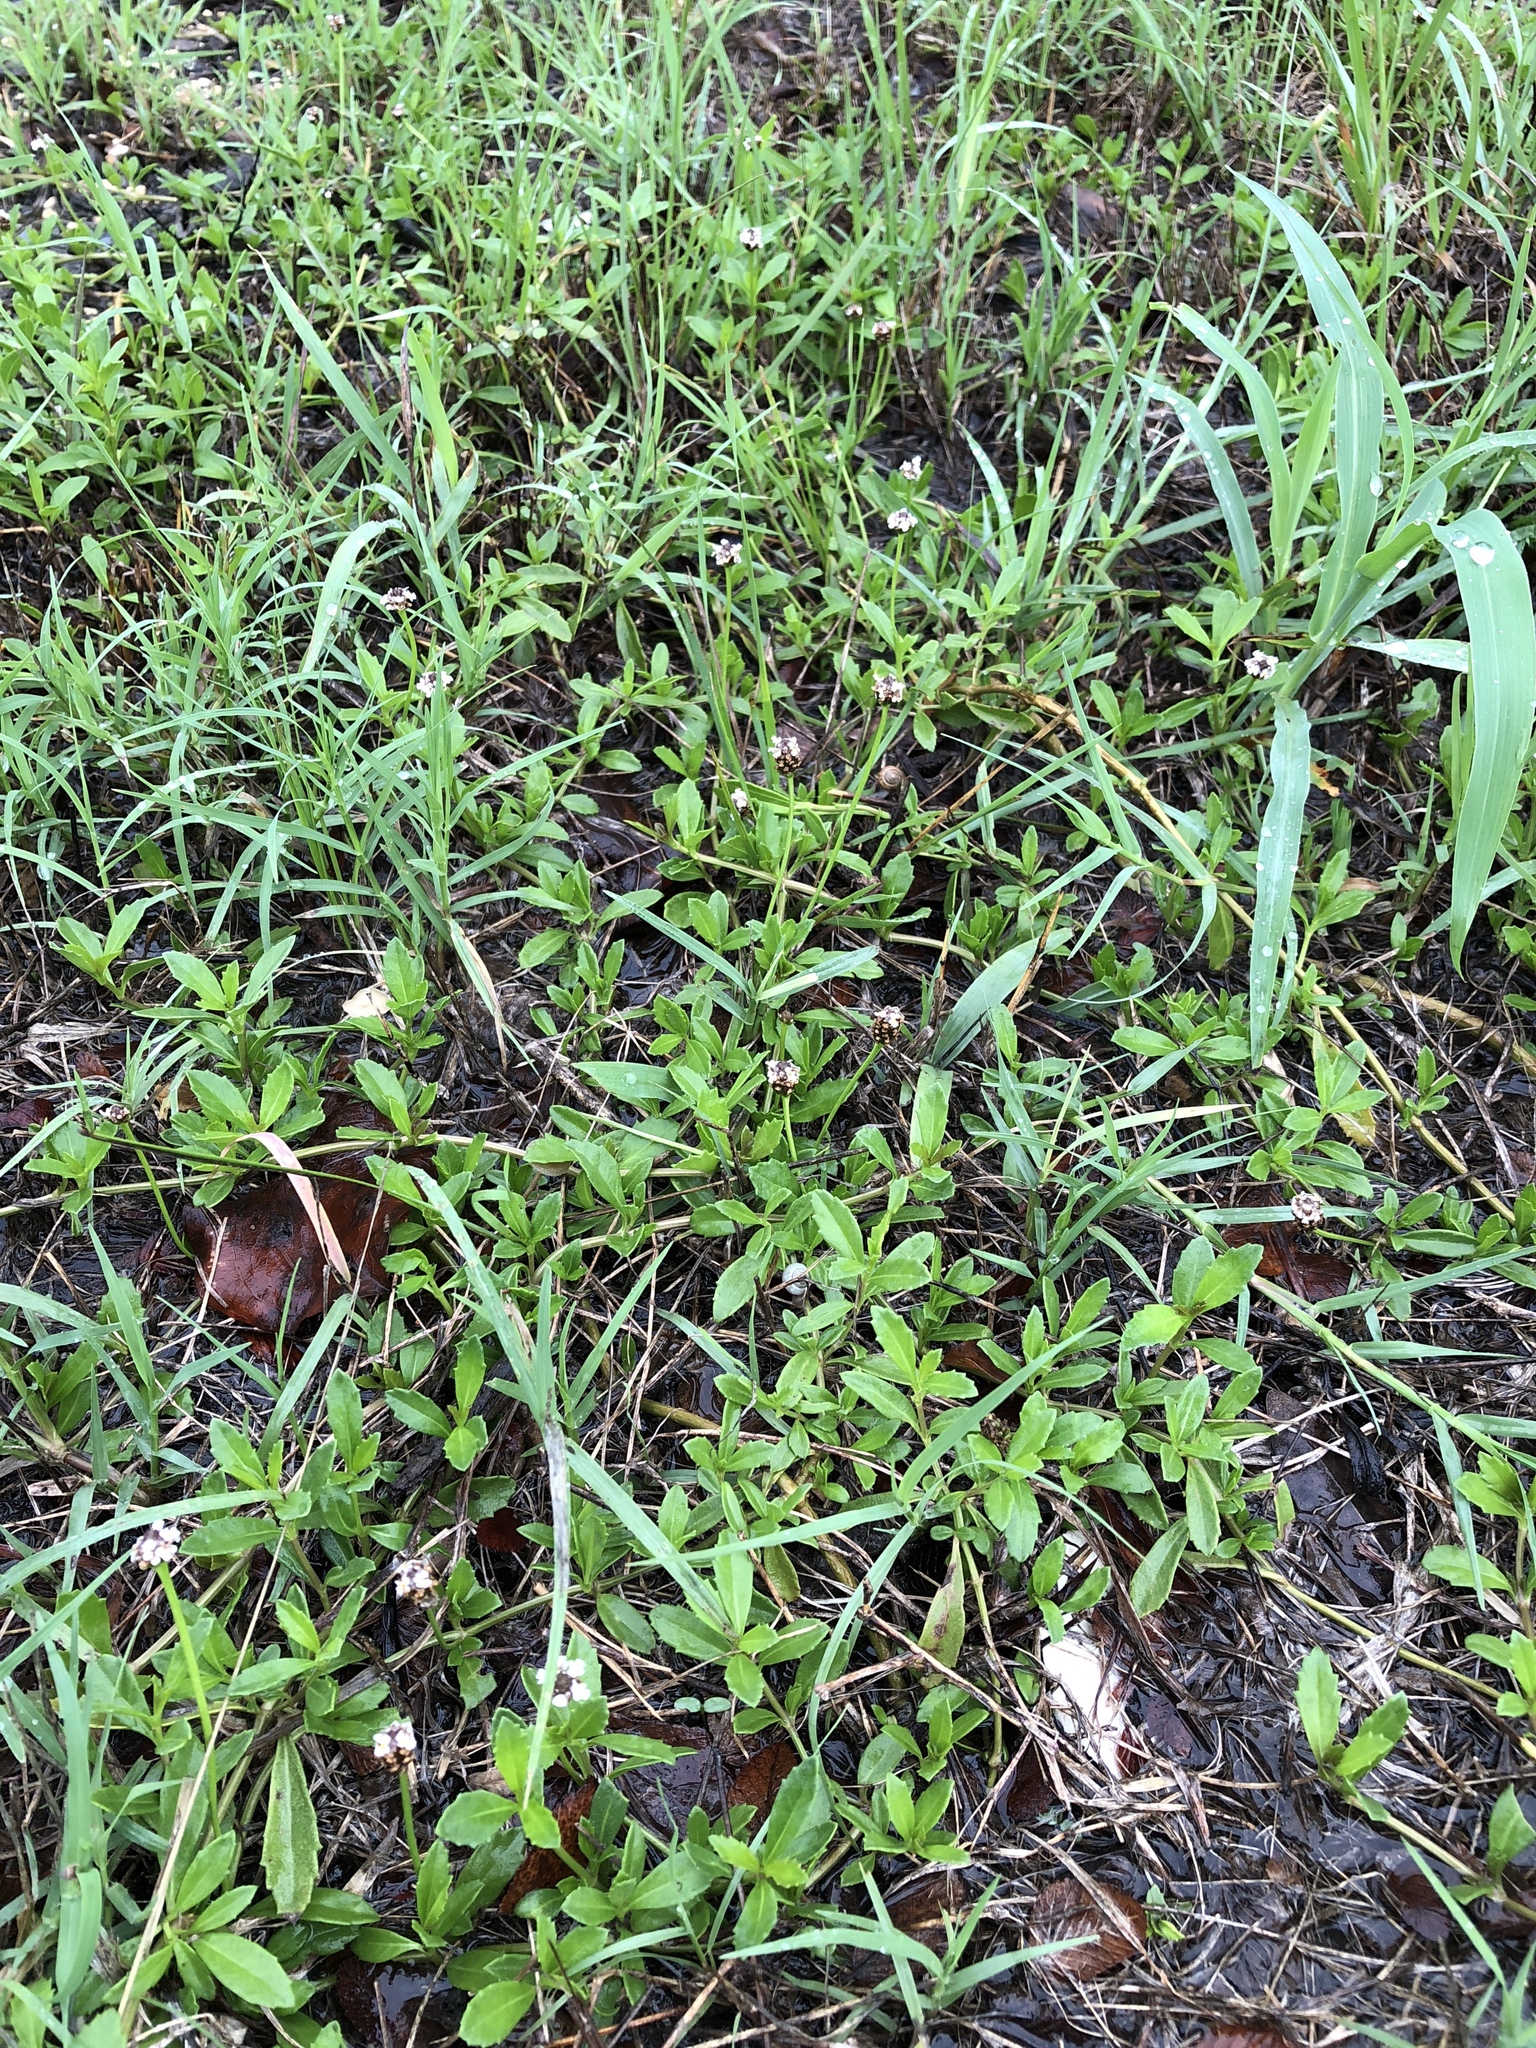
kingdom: Plantae
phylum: Tracheophyta
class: Magnoliopsida
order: Lamiales
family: Verbenaceae
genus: Phyla
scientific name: Phyla nodiflora
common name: Frogfruit
